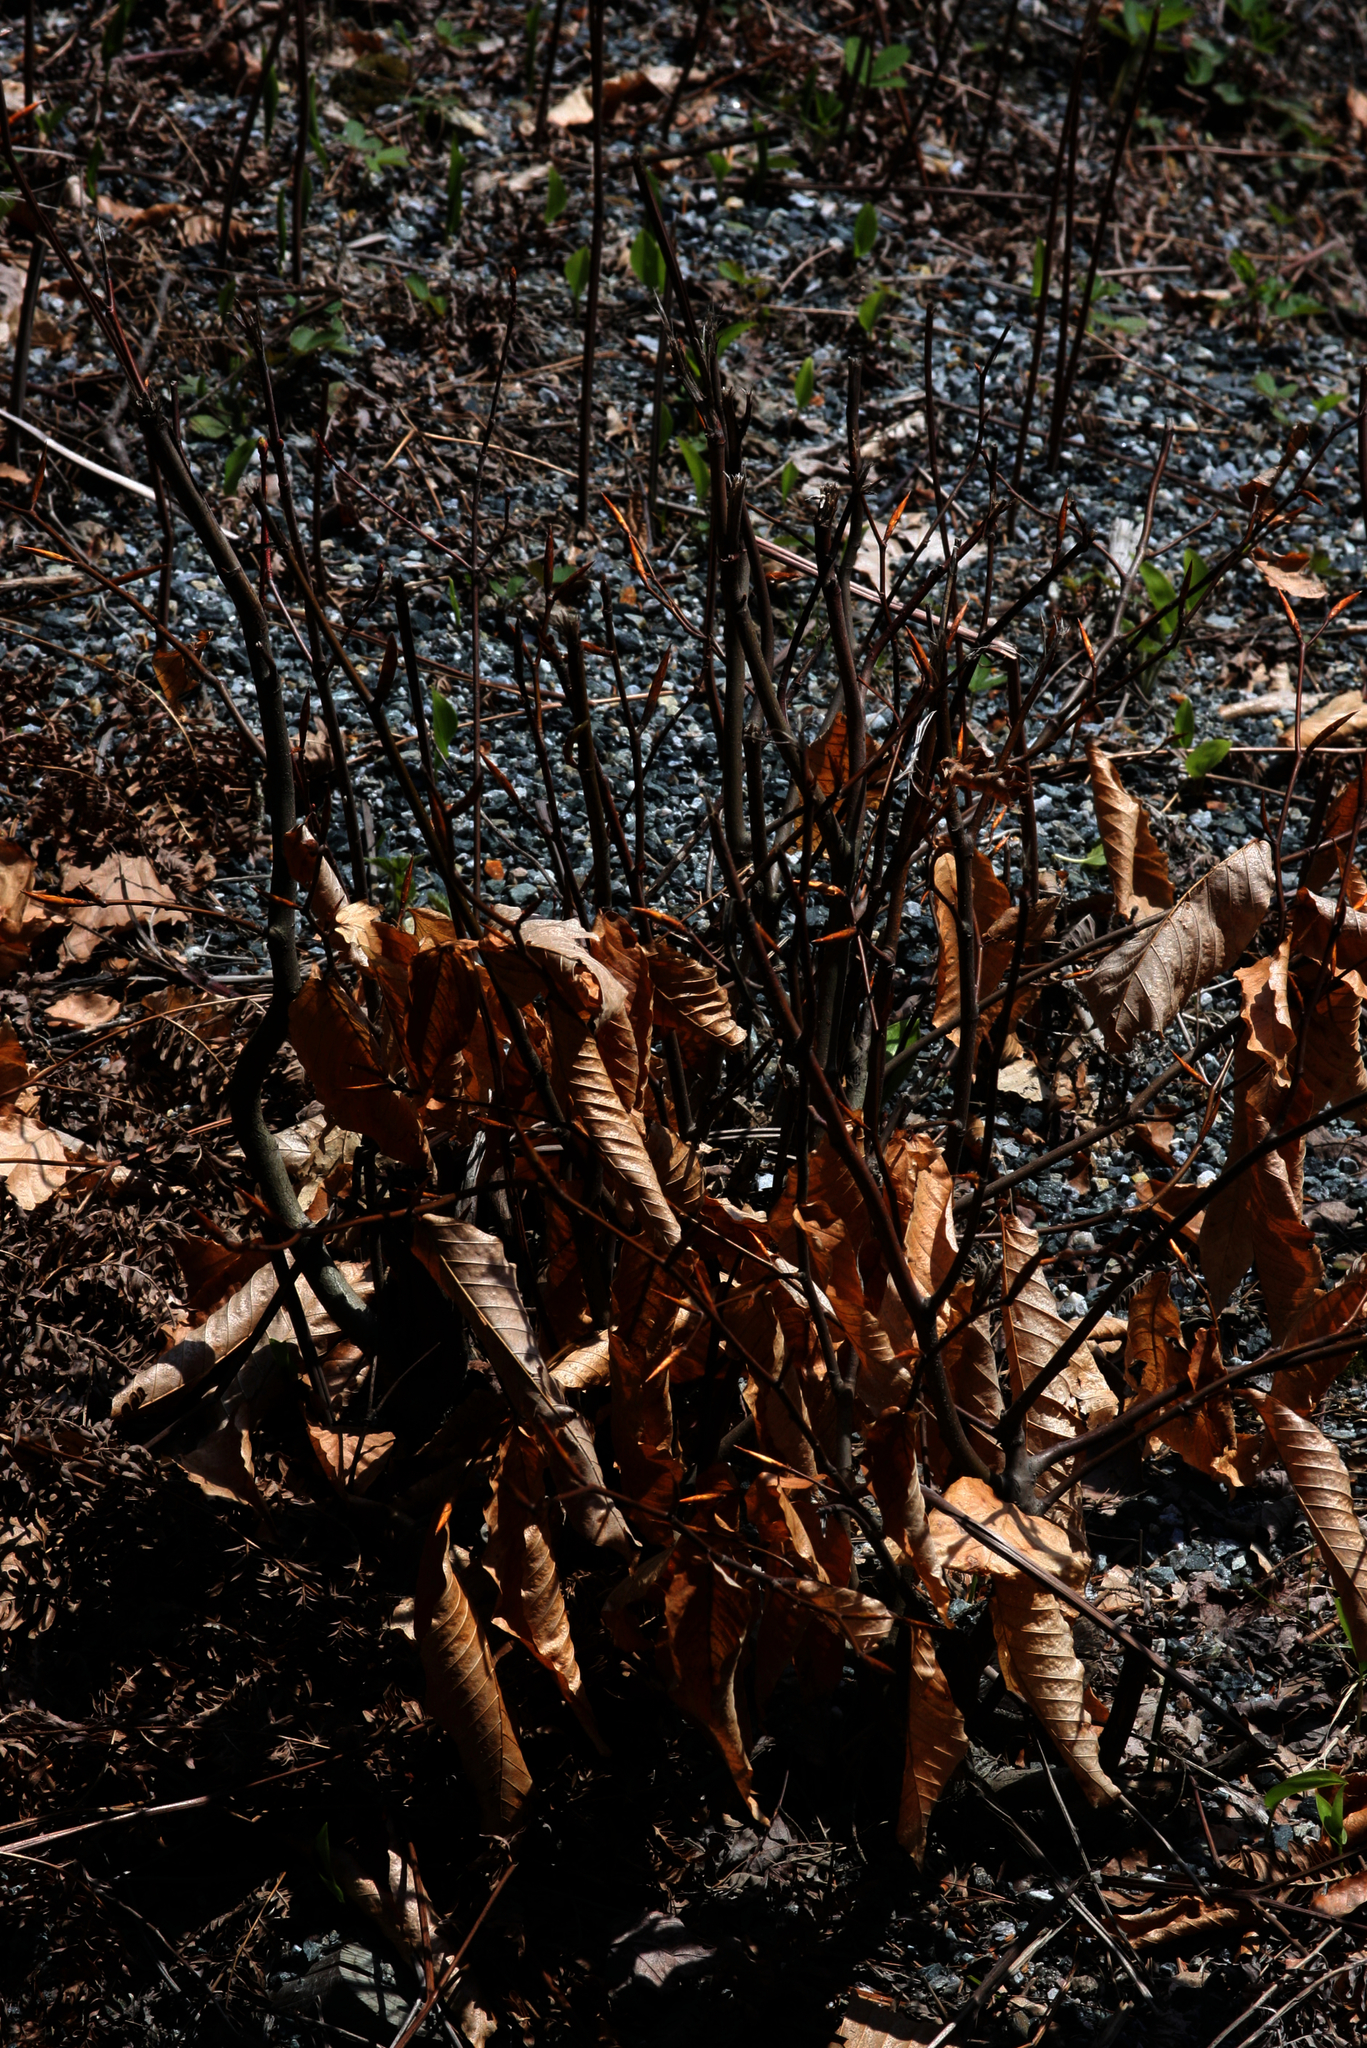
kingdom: Plantae
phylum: Tracheophyta
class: Magnoliopsida
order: Fagales
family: Fagaceae
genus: Fagus
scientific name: Fagus grandifolia
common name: American beech
